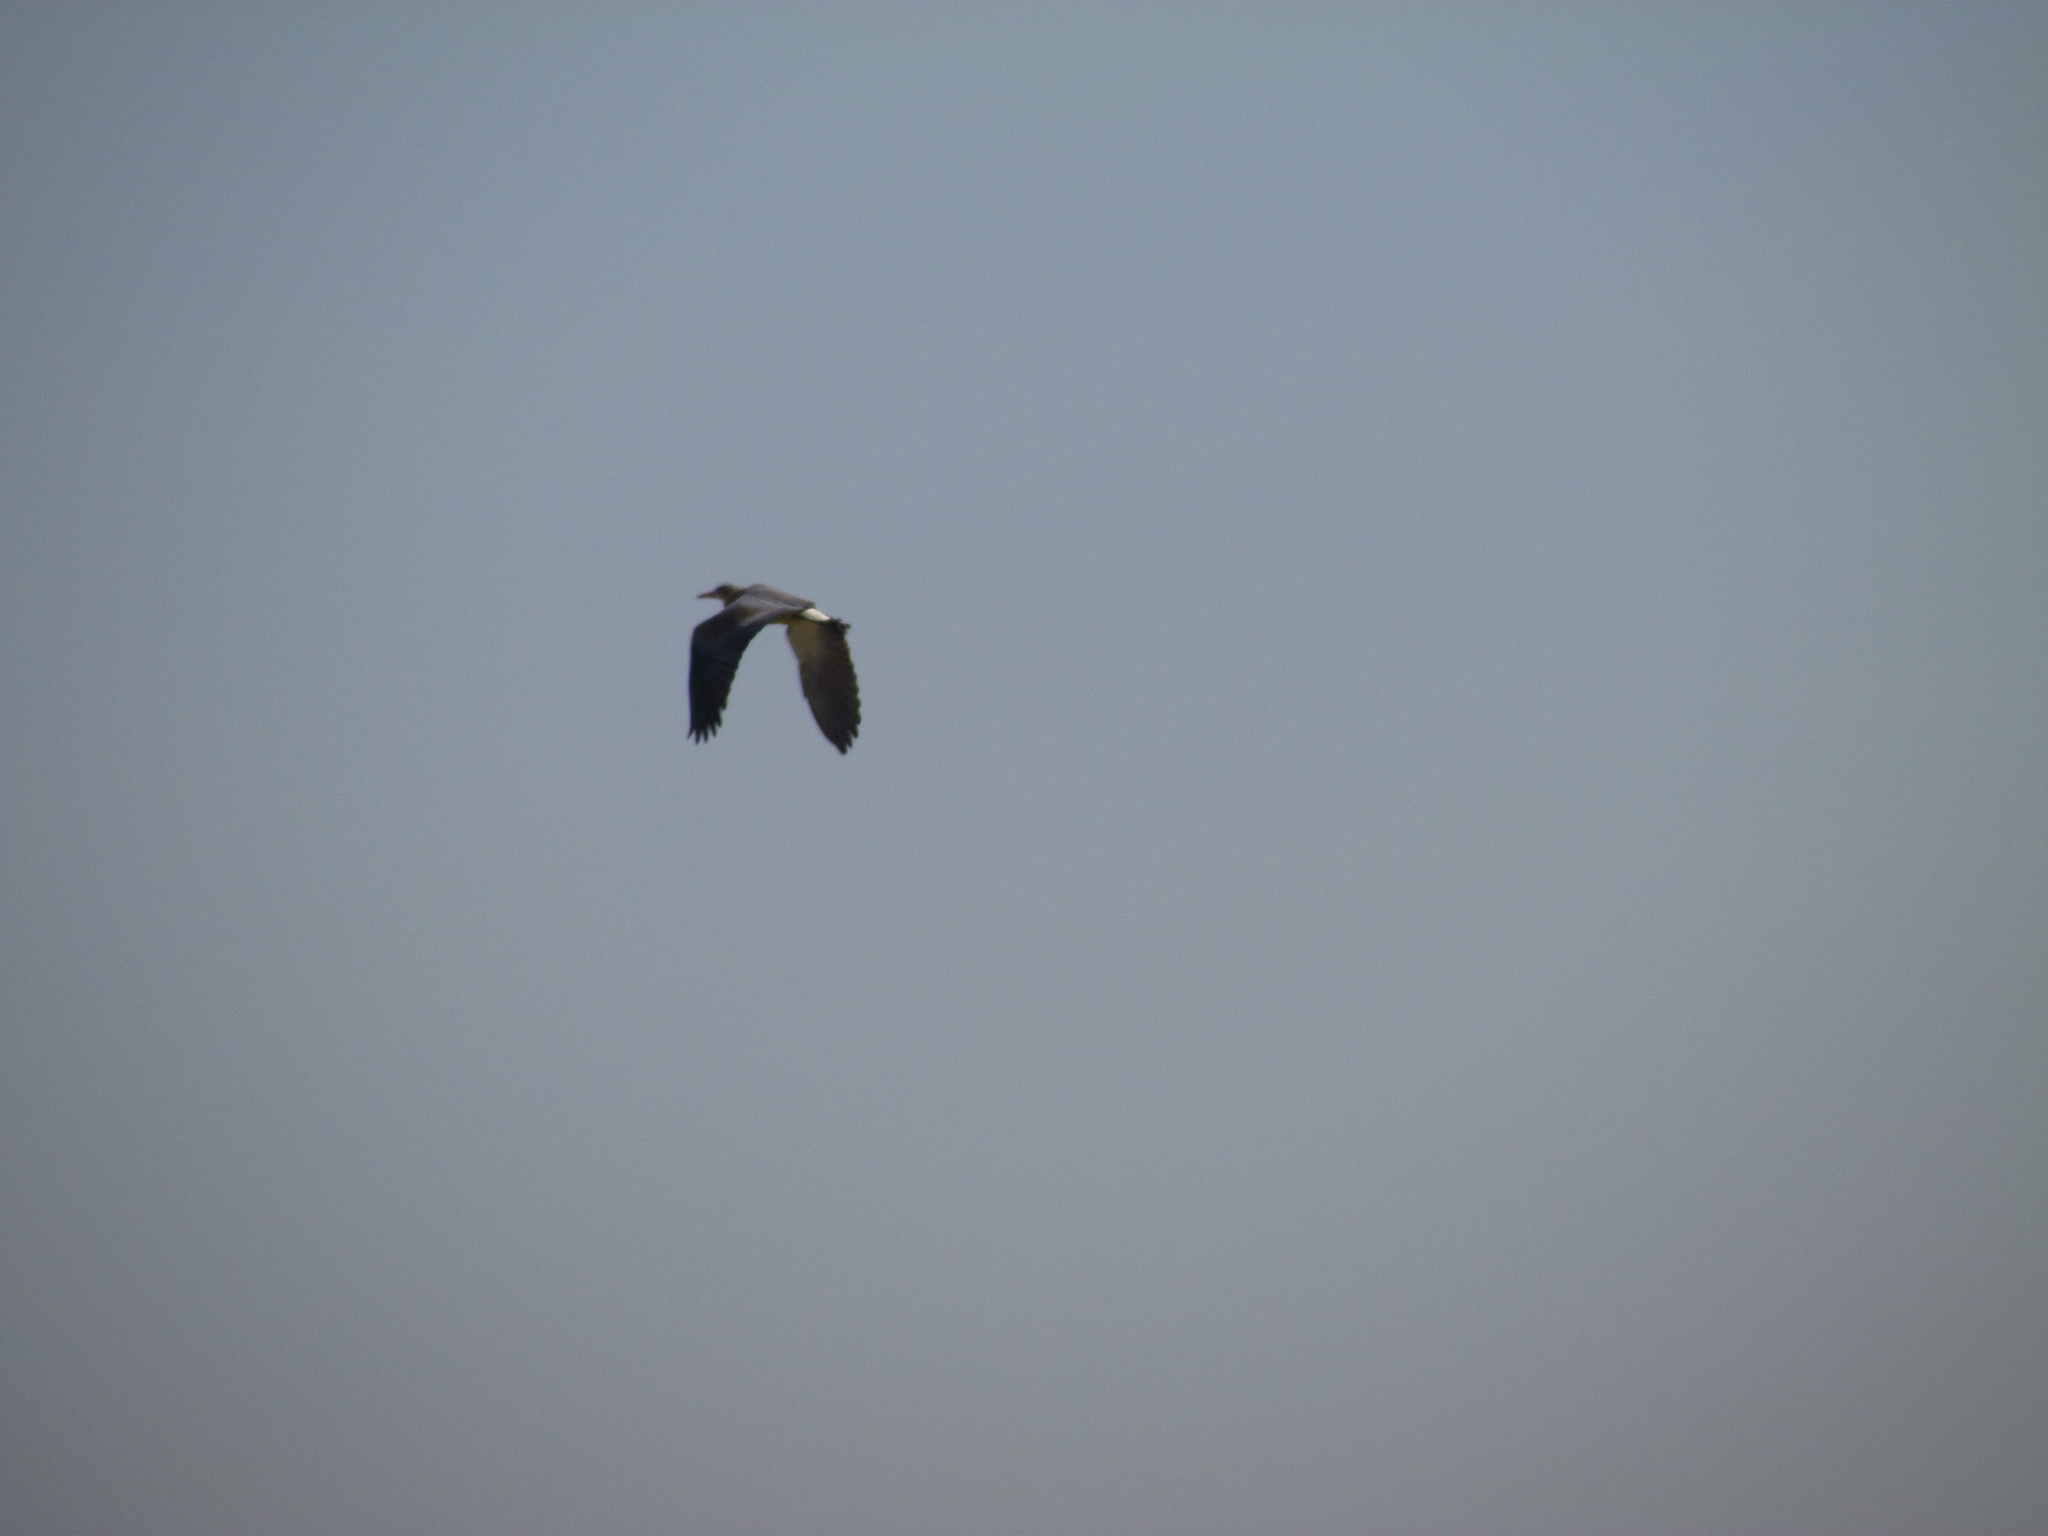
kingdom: Animalia
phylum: Chordata
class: Aves
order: Pelecaniformes
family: Ardeidae
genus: Syrigma
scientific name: Syrigma sibilatrix
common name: Whistling heron
